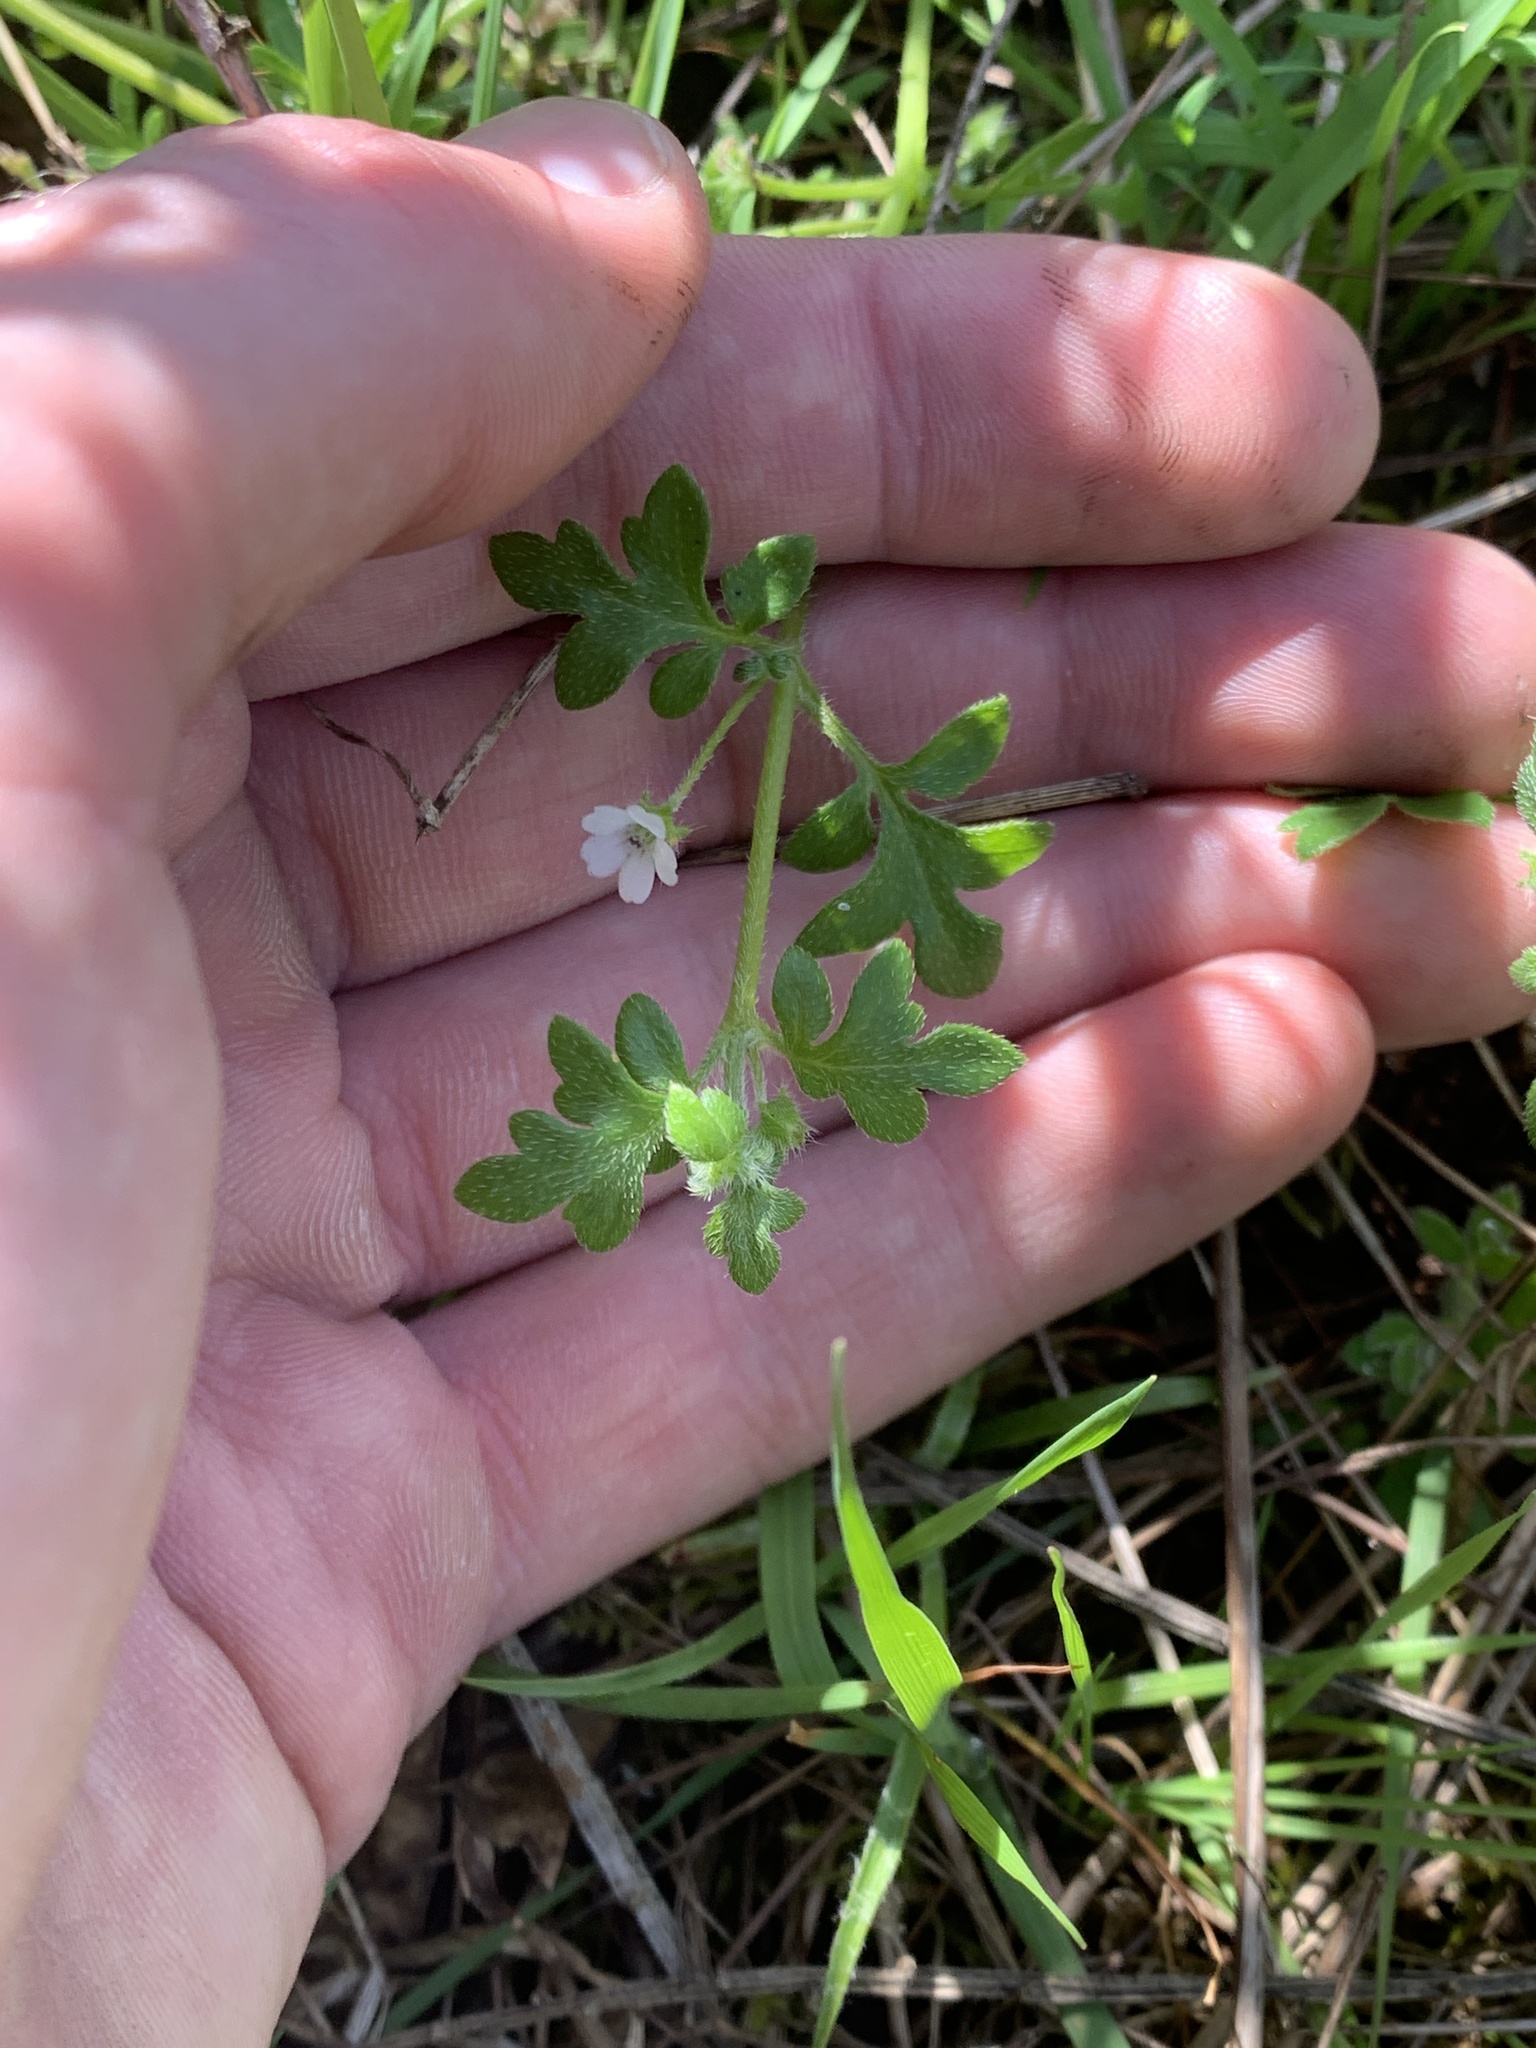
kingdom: Plantae
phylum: Tracheophyta
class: Magnoliopsida
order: Boraginales
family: Hydrophyllaceae
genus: Nemophila
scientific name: Nemophila pedunculata
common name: Little-foot baby-blue-eyes
